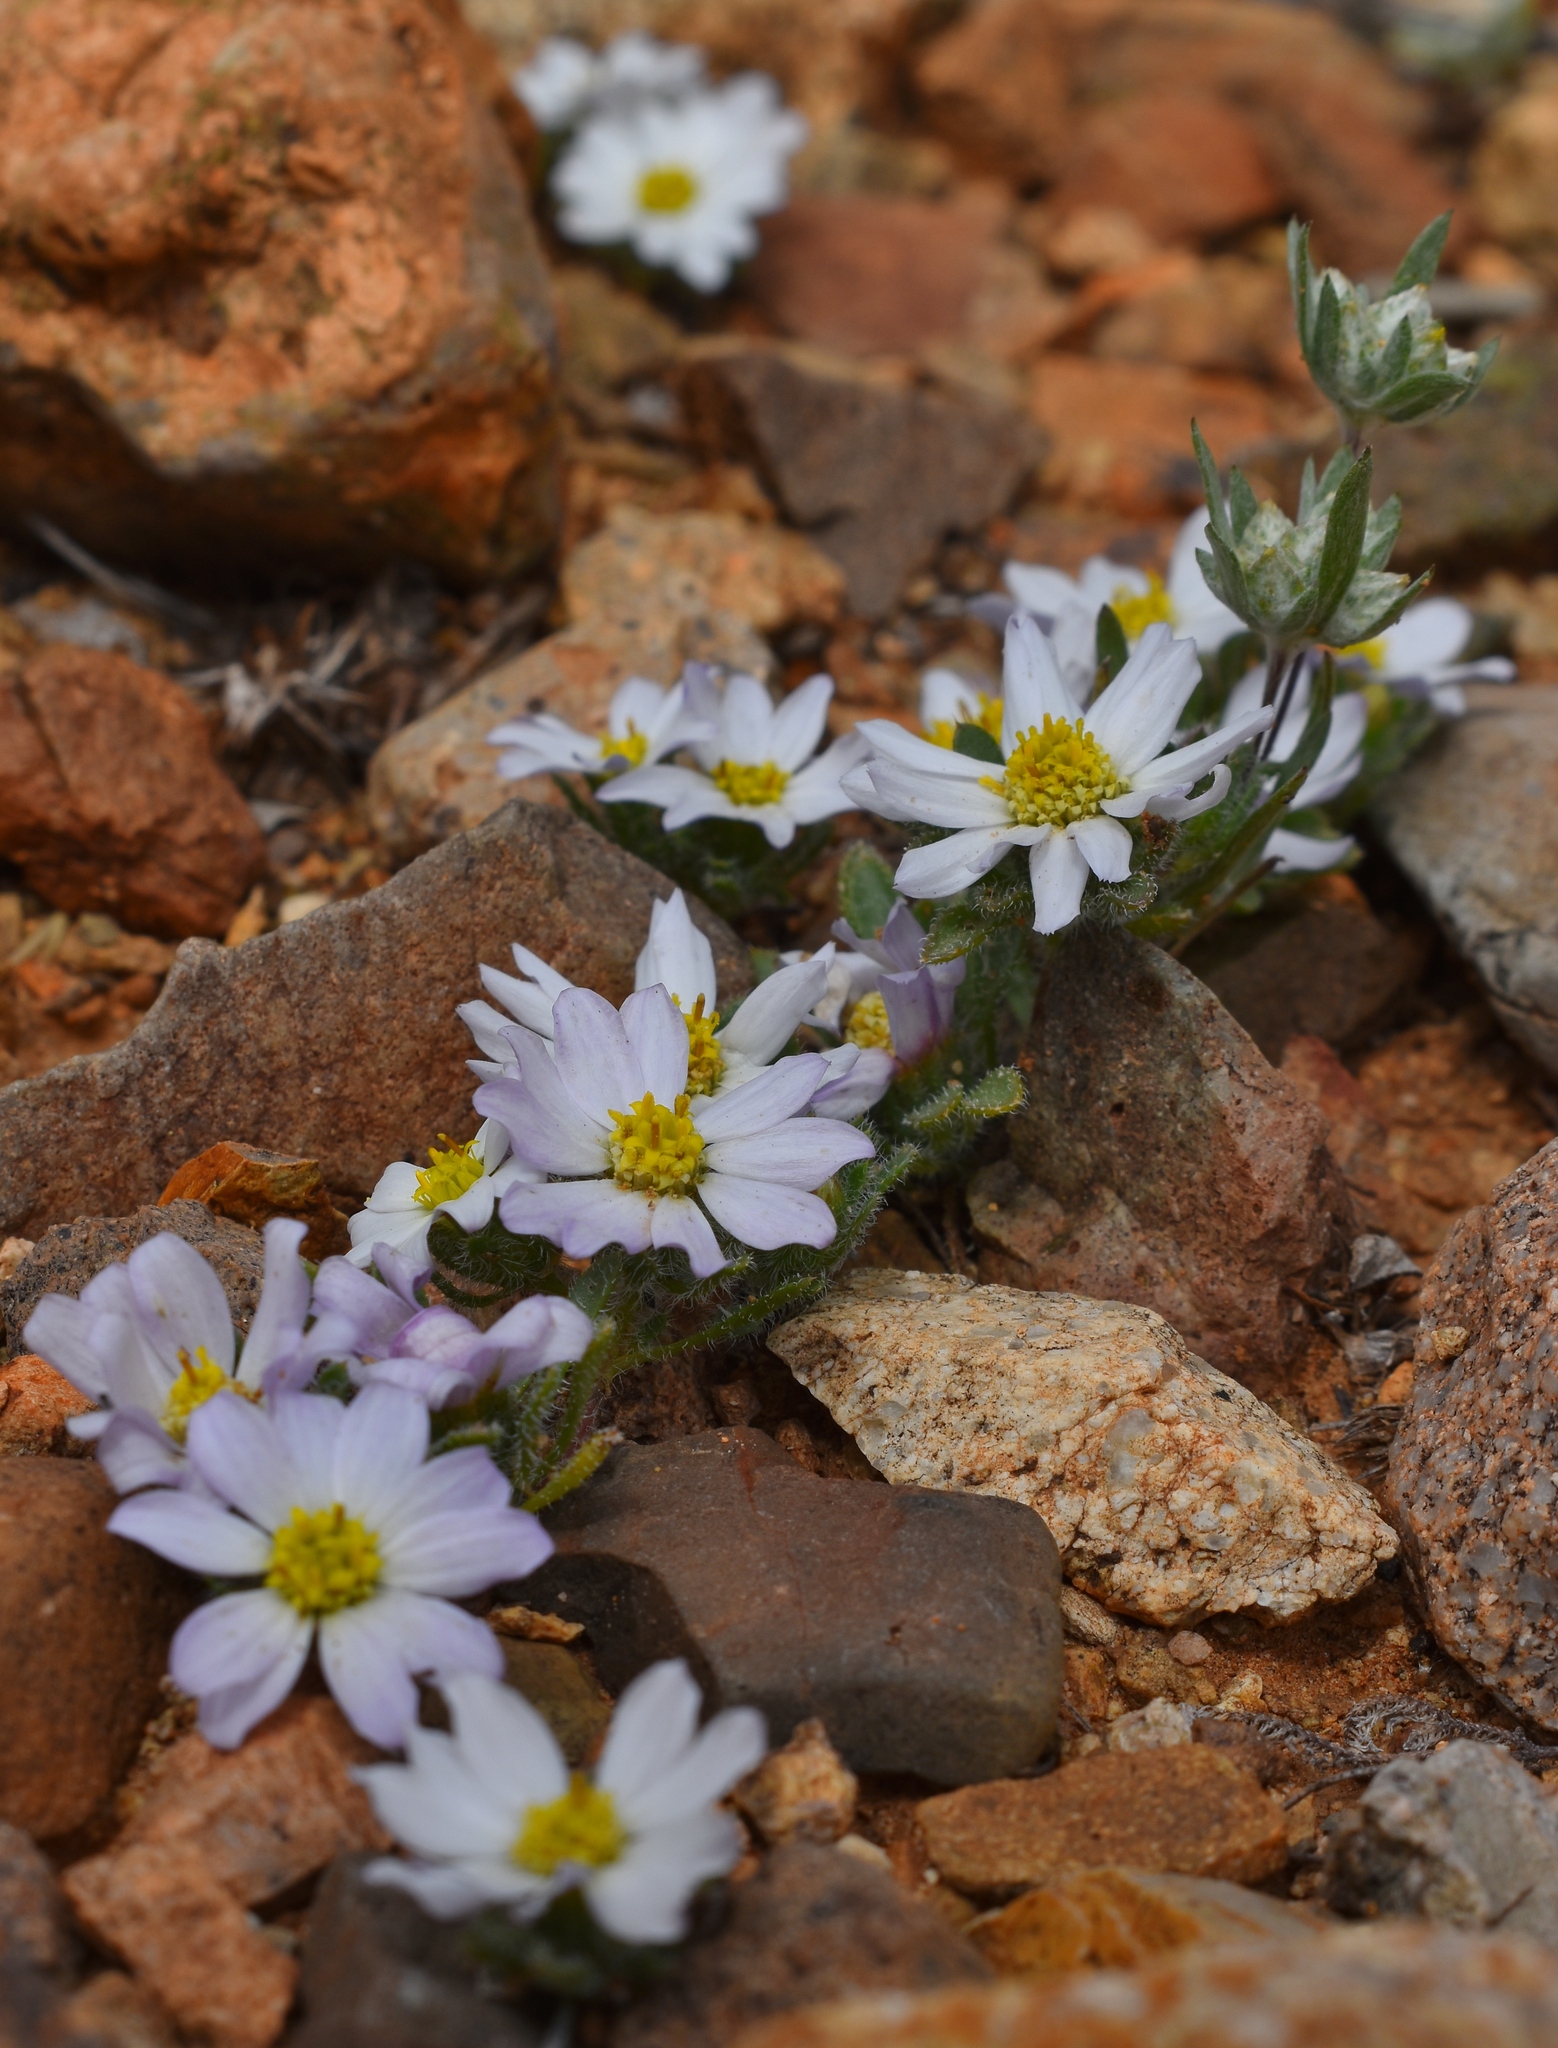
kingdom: Plantae
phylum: Tracheophyta
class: Magnoliopsida
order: Asterales
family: Asteraceae
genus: Monoptilon
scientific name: Monoptilon bellioides
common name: Bristly desertstar
